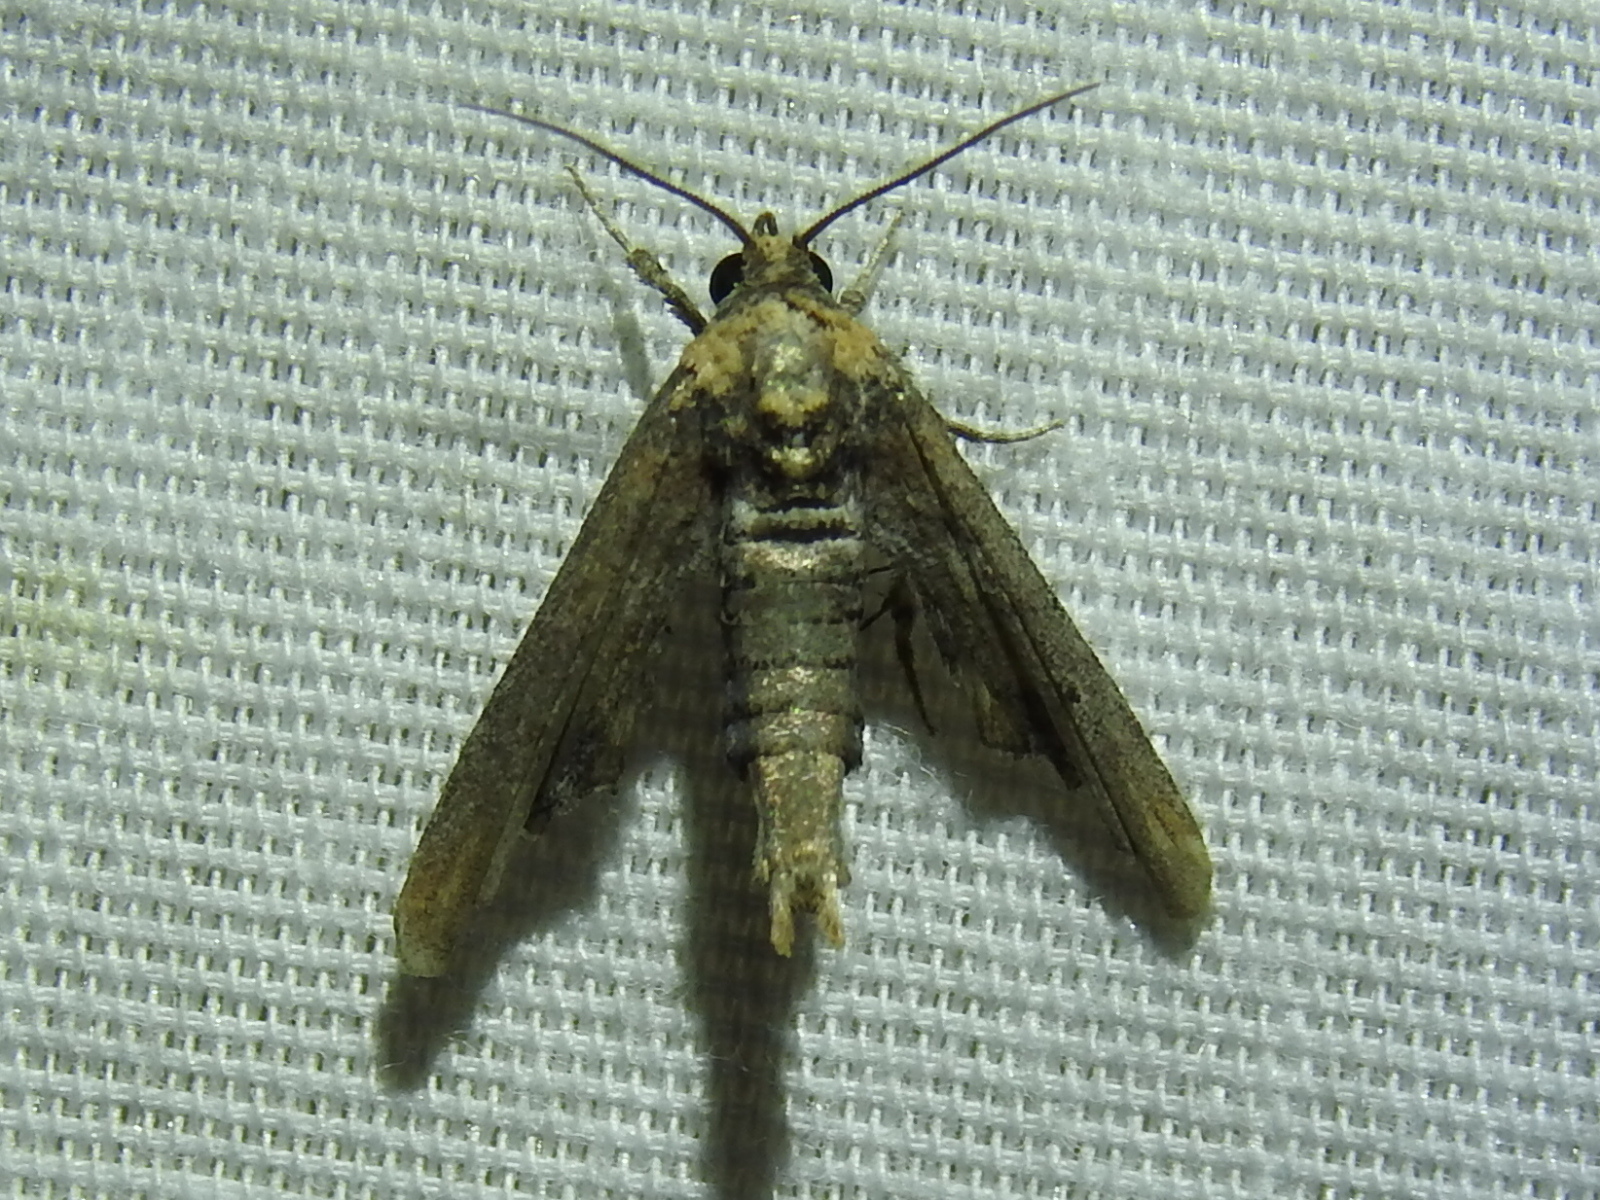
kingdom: Animalia
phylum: Arthropoda
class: Insecta
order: Lepidoptera
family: Euteliidae
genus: Marathyssa
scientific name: Marathyssa inficita
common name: Dark marathyssa moth
